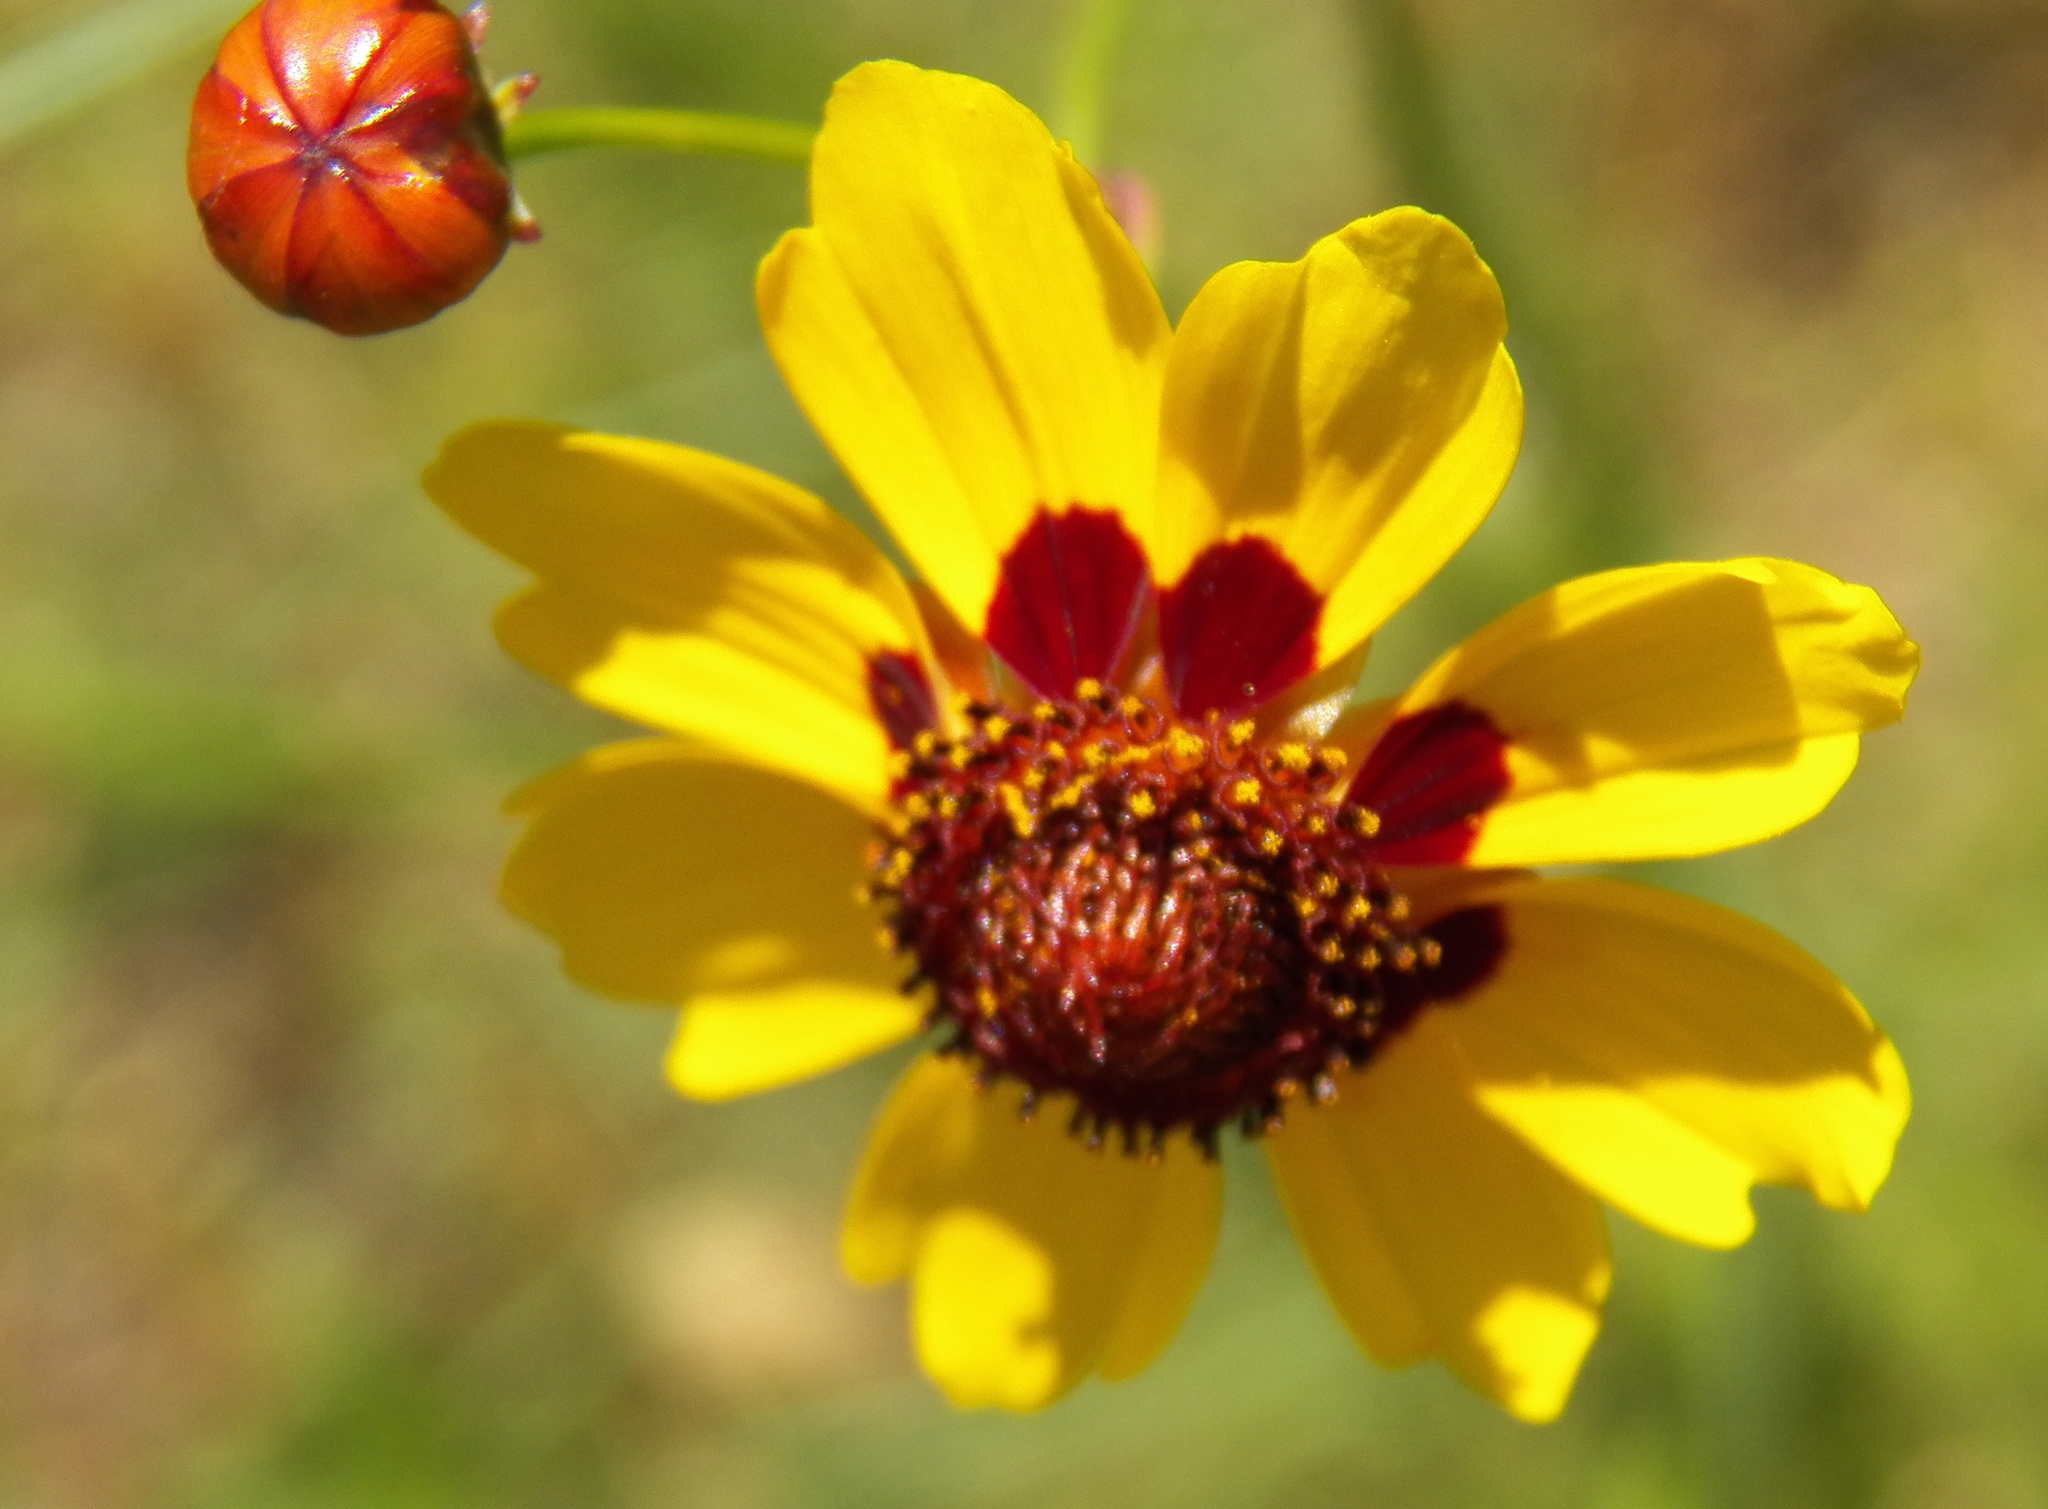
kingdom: Plantae
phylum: Tracheophyta
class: Magnoliopsida
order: Asterales
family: Asteraceae
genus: Coreopsis
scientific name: Coreopsis tinctoria
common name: Garden tickseed
